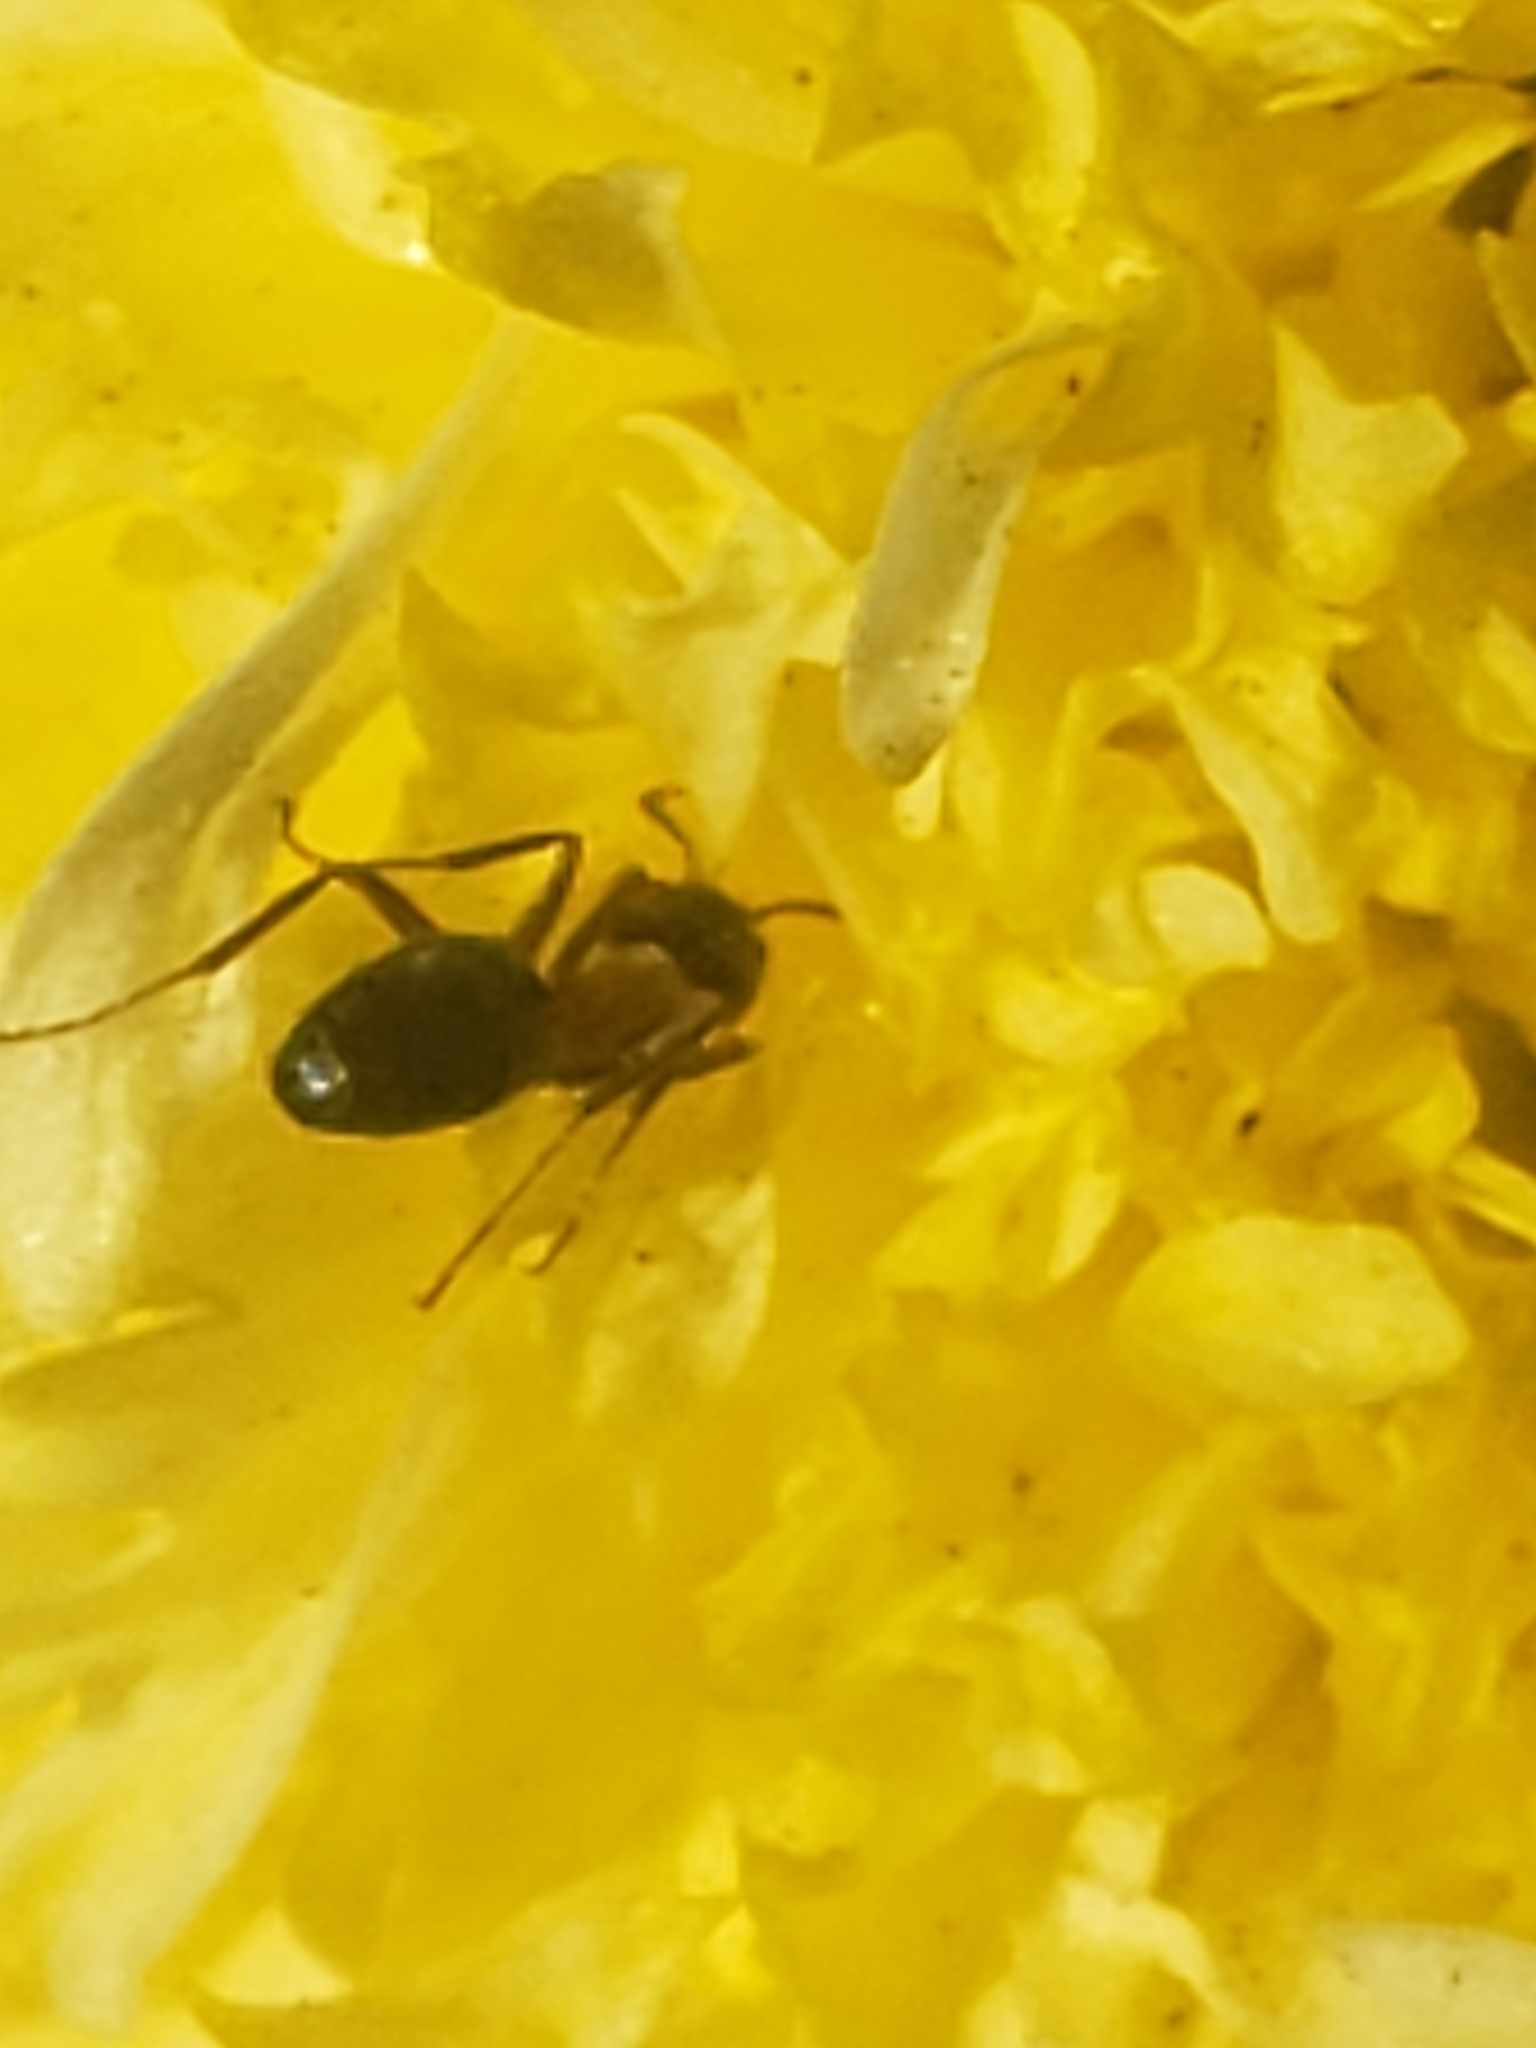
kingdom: Animalia
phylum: Arthropoda
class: Insecta
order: Hymenoptera
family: Formicidae
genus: Liometopum
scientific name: Liometopum occidentale
